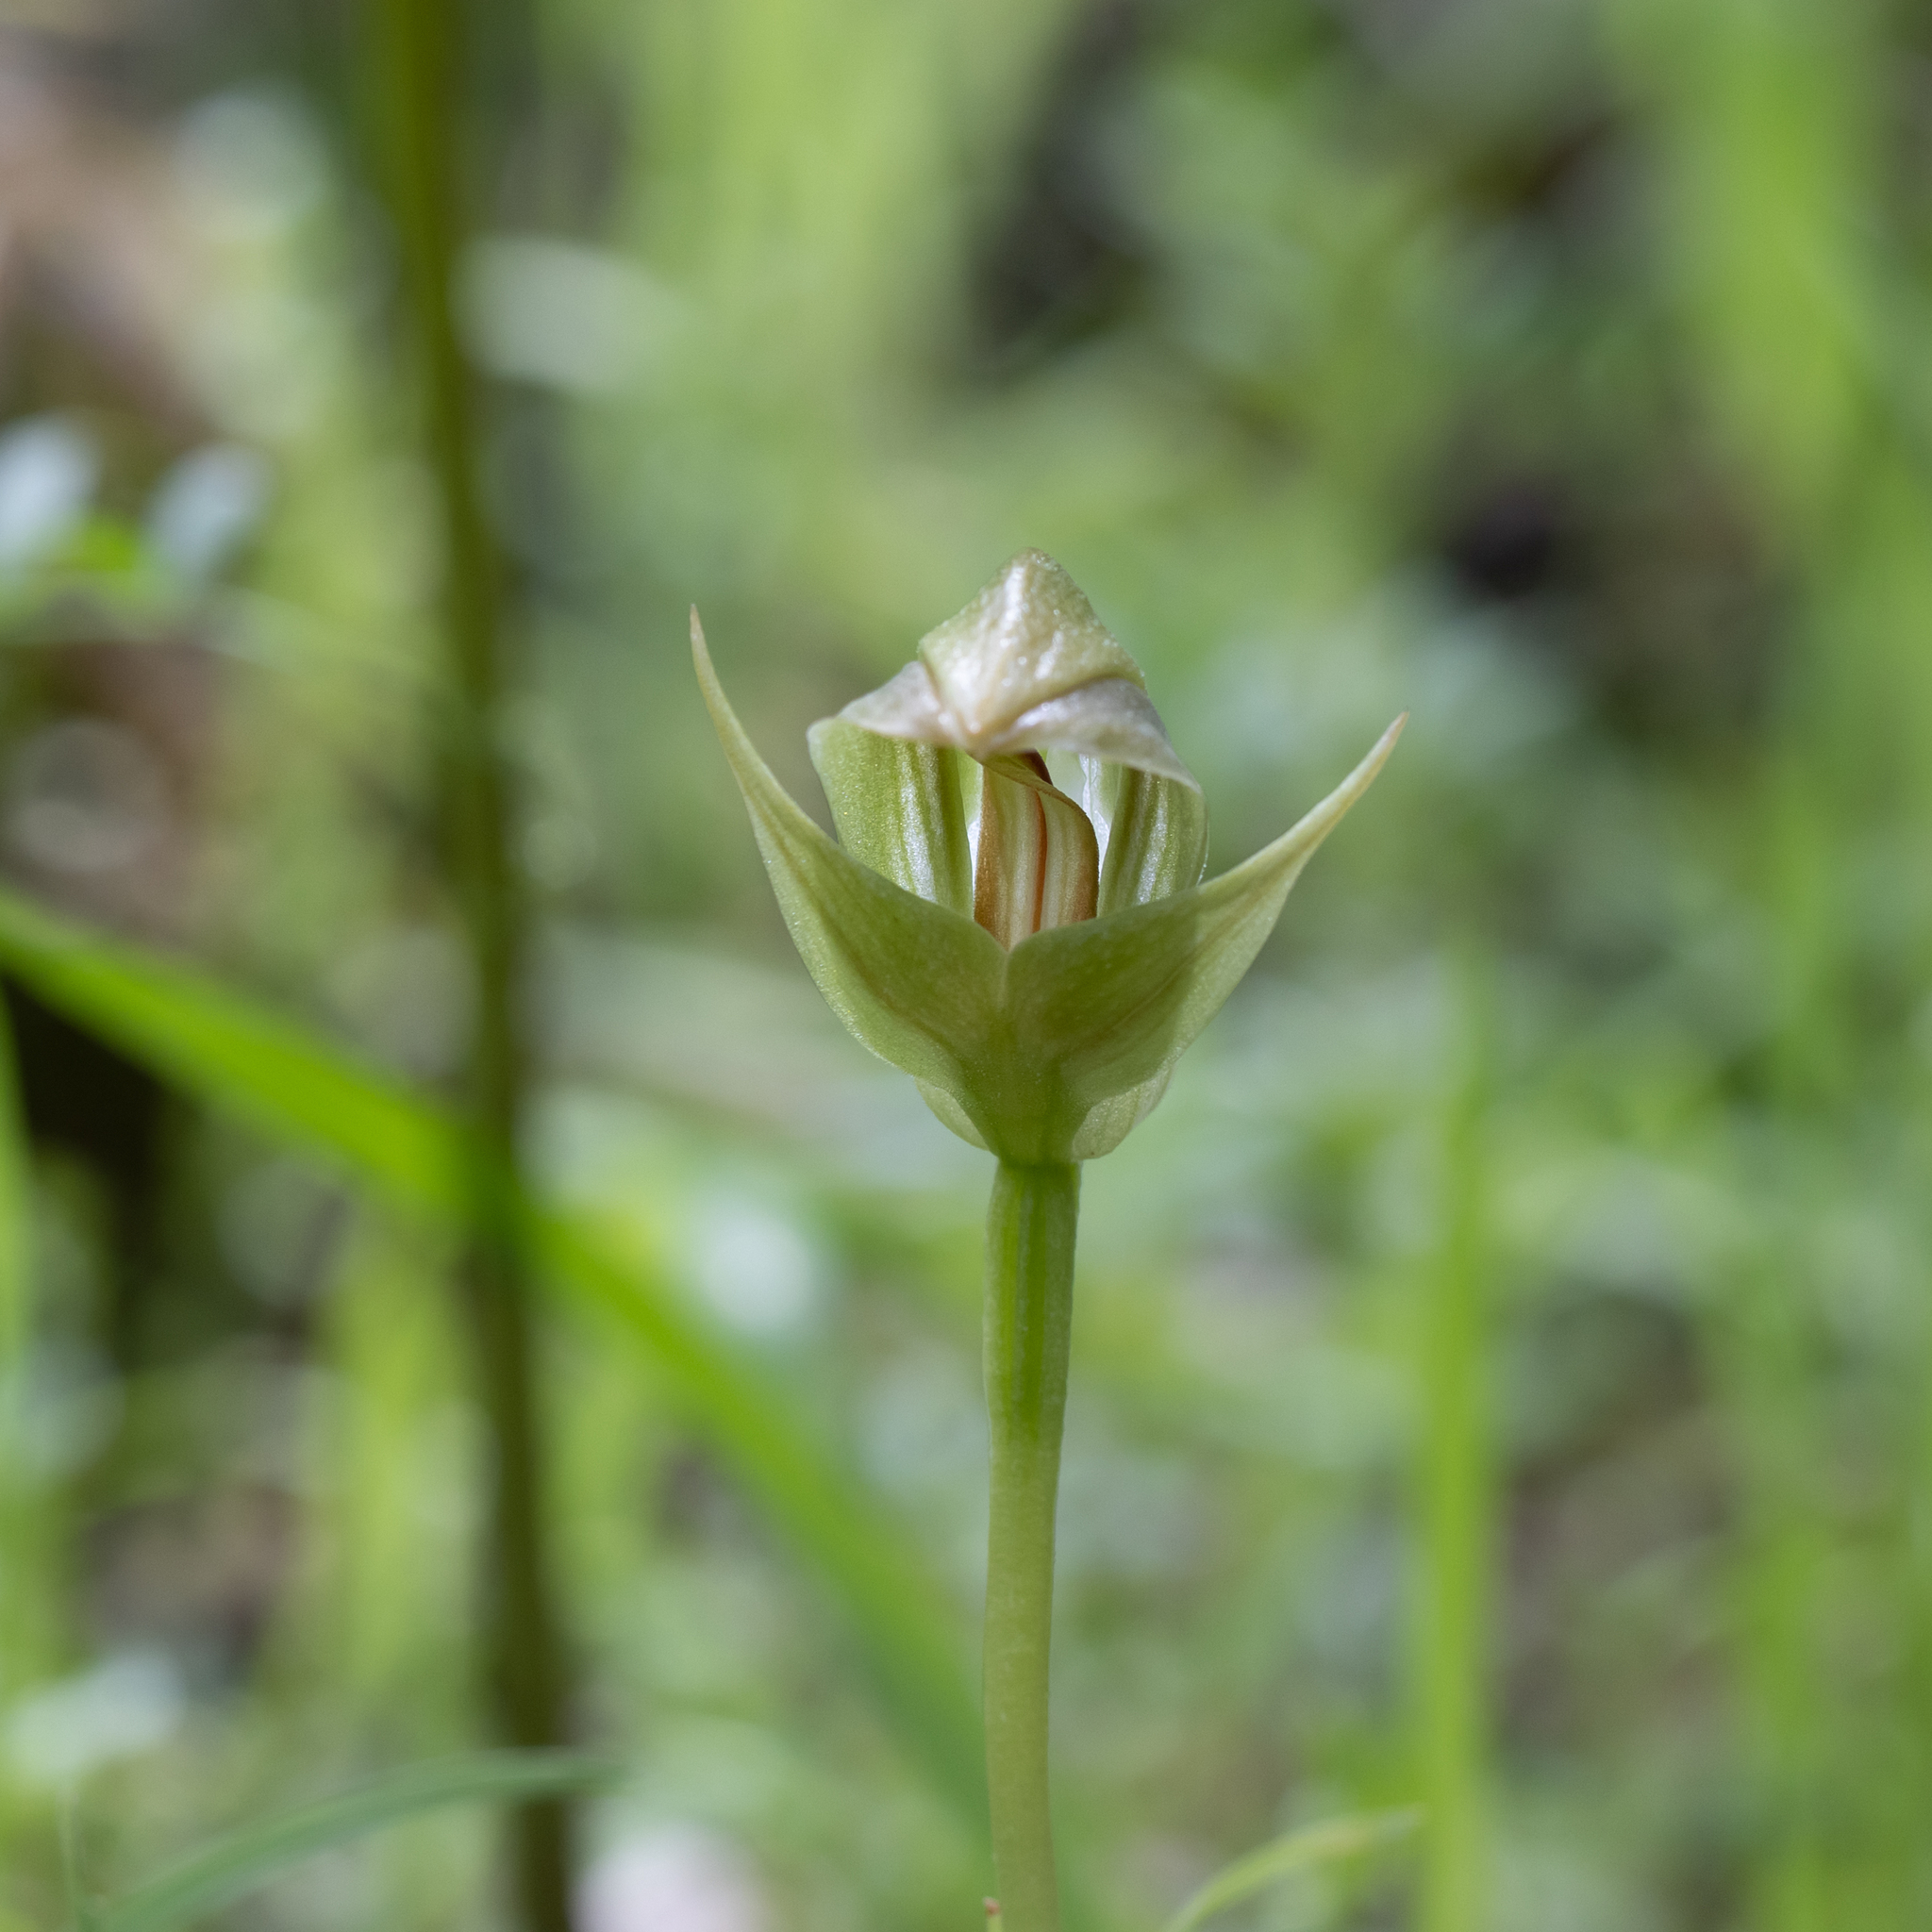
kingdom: Plantae
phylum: Tracheophyta
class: Liliopsida
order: Asparagales
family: Orchidaceae
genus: Pterostylis
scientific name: Pterostylis curta
